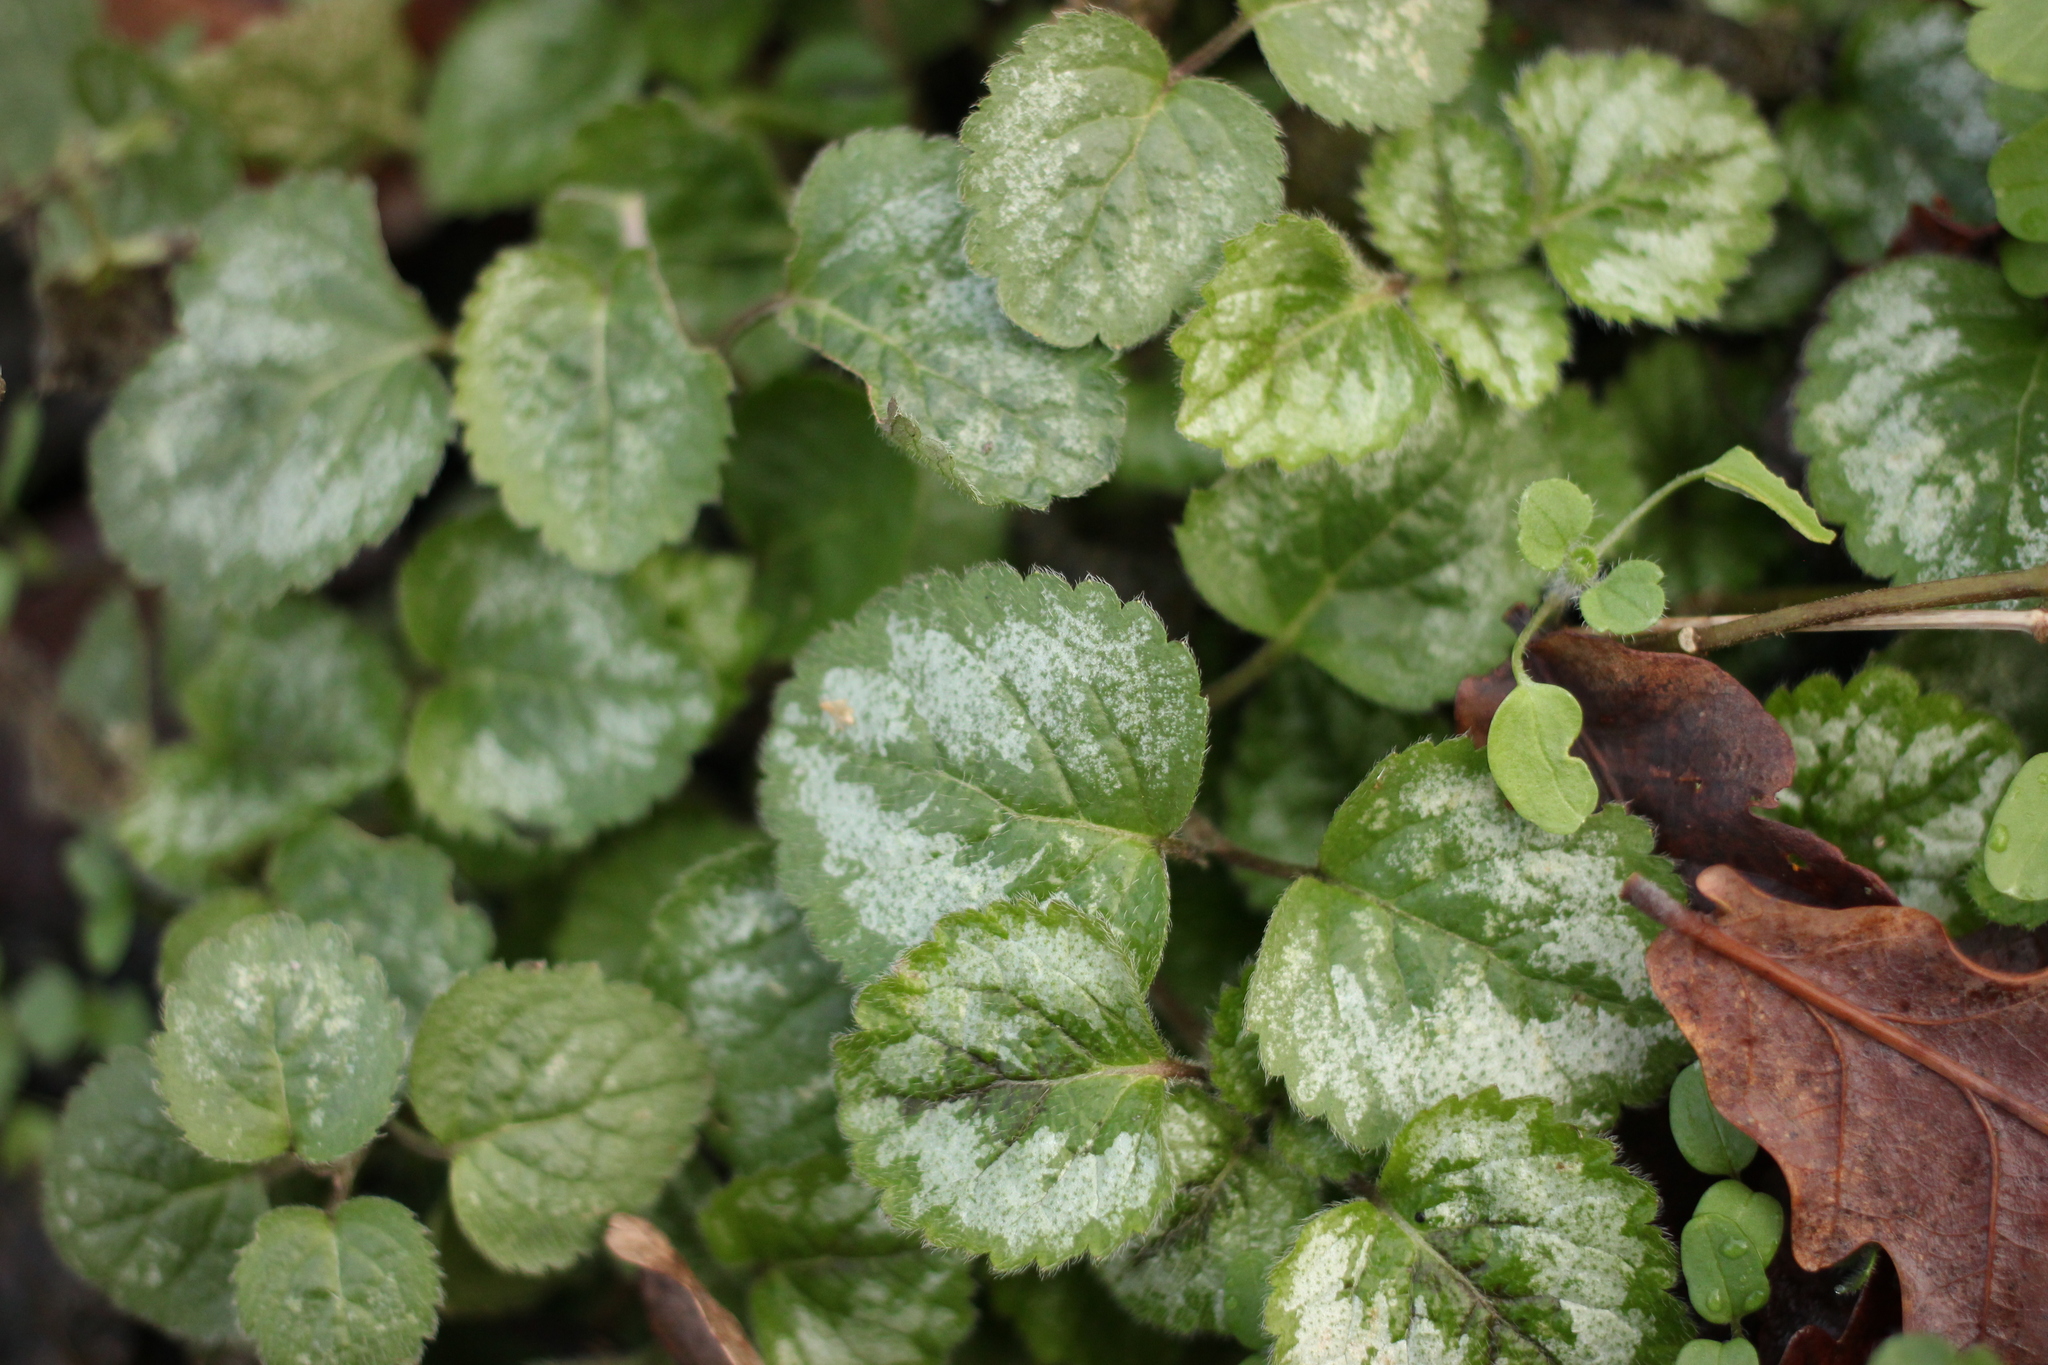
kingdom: Plantae
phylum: Tracheophyta
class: Magnoliopsida
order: Lamiales
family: Lamiaceae
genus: Lamium
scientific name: Lamium galeobdolon
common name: Yellow archangel
